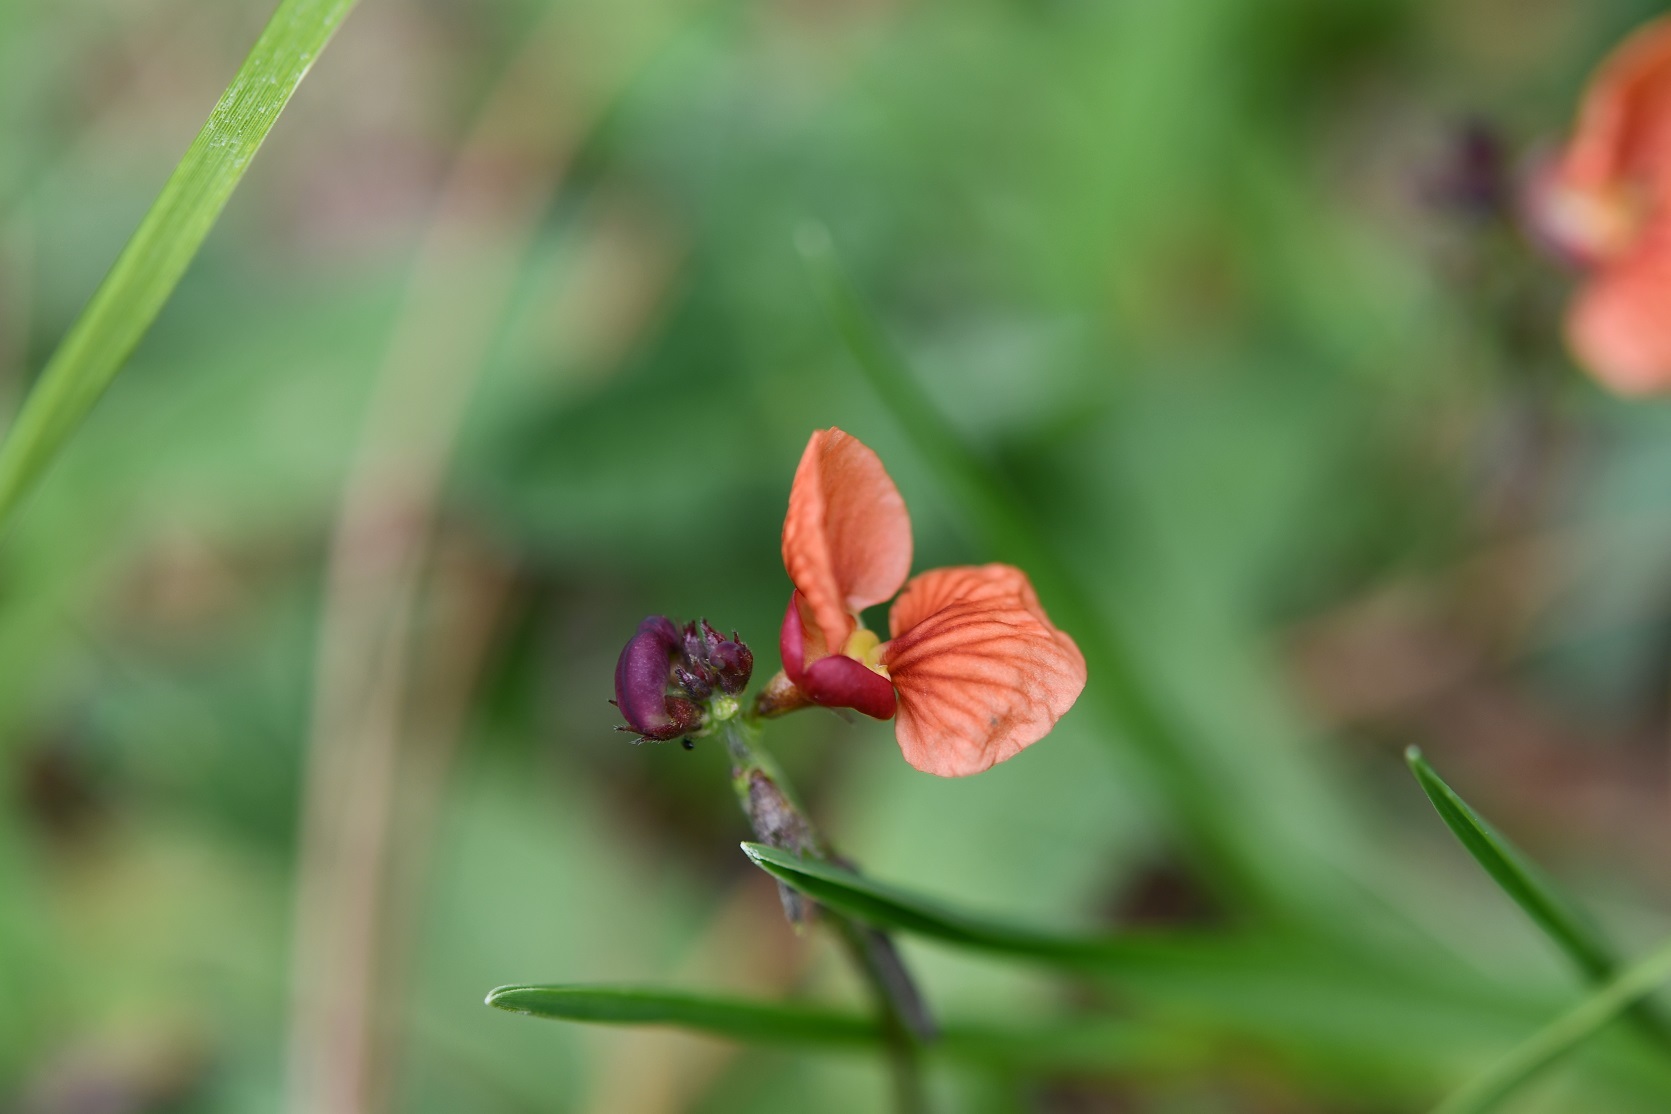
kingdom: Plantae
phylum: Tracheophyta
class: Magnoliopsida
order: Fabales
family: Fabaceae
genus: Macroptilium
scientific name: Macroptilium gibbosifolium
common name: Variableleaf bushbean
